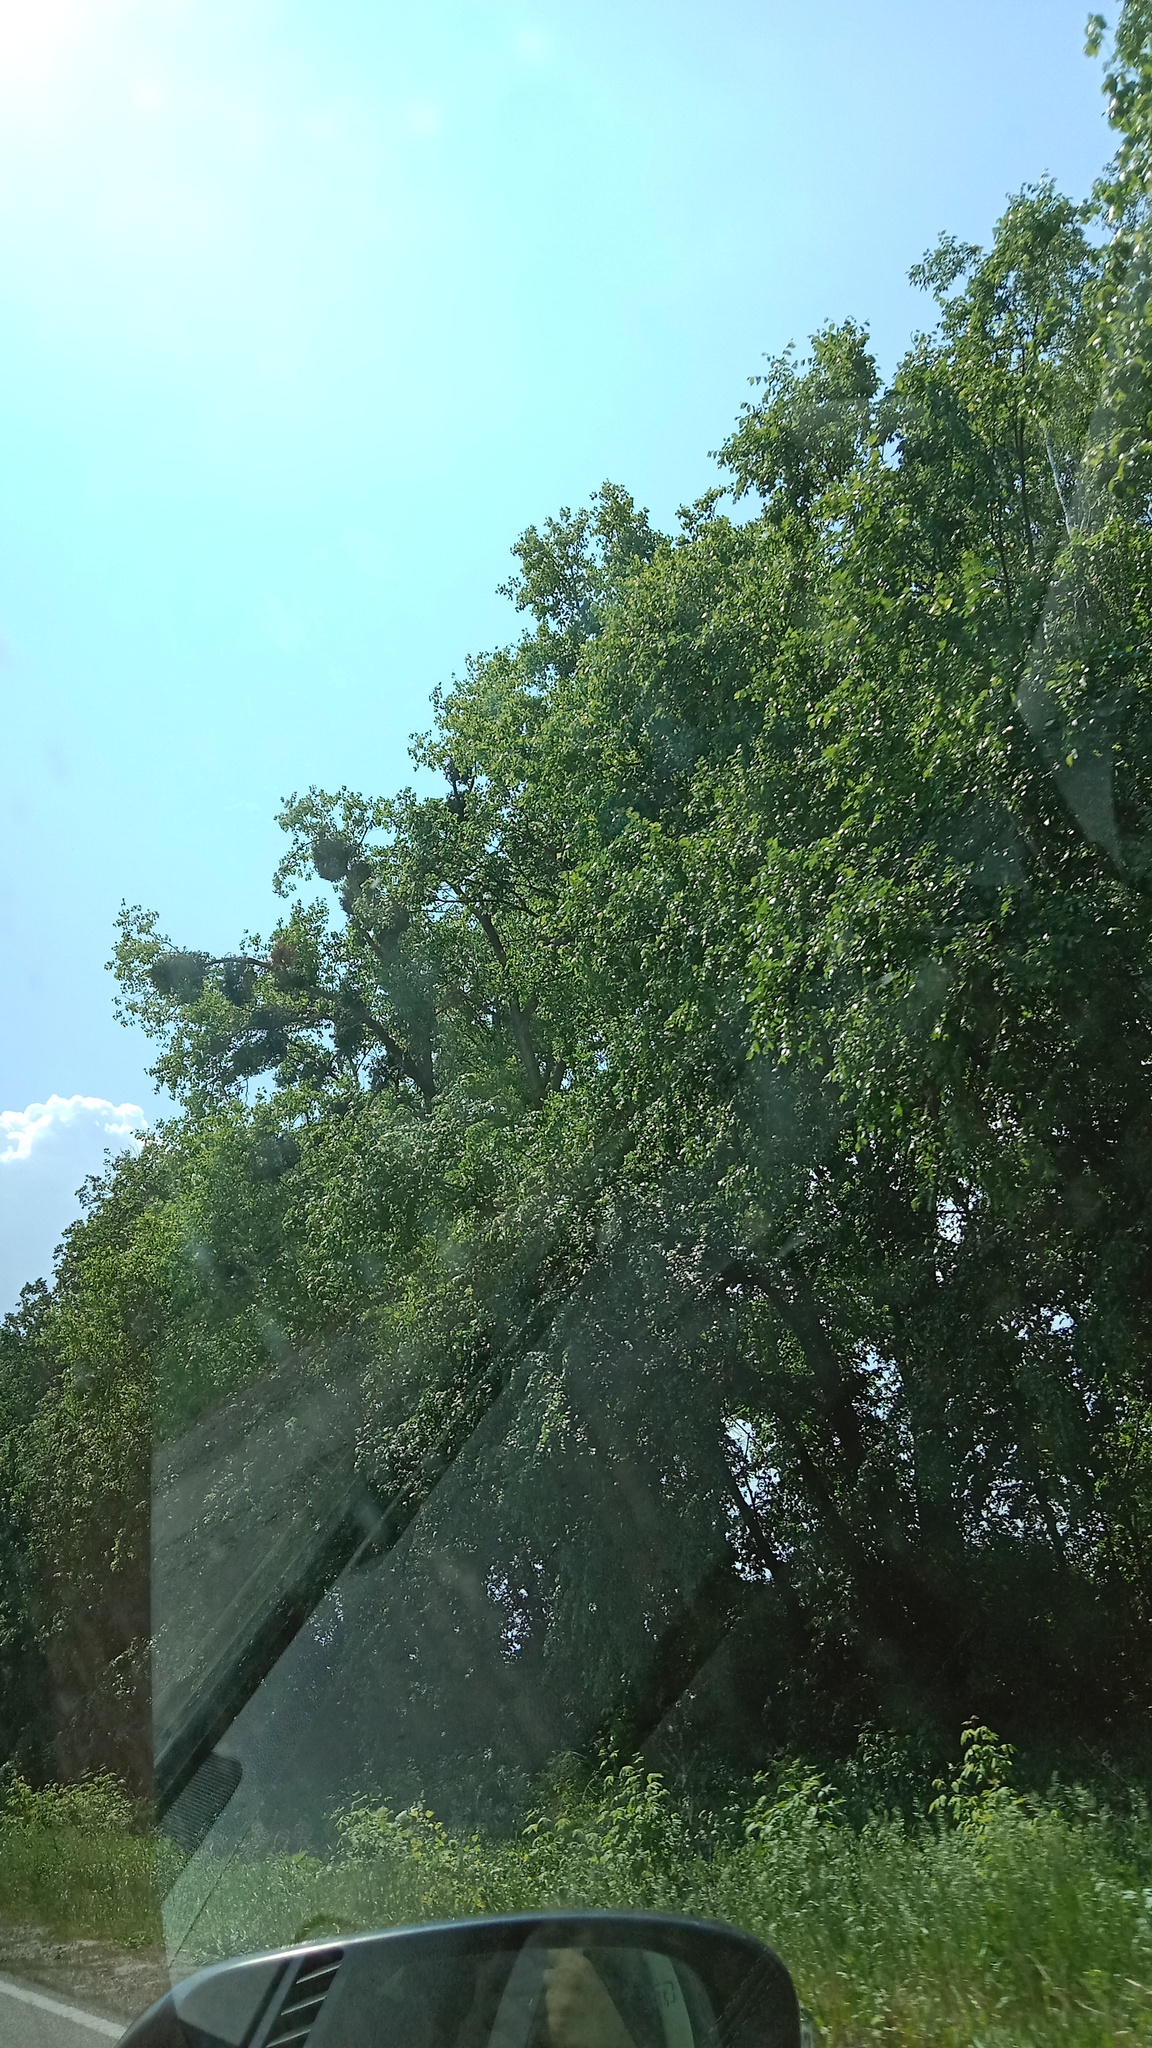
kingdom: Plantae
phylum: Tracheophyta
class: Magnoliopsida
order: Santalales
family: Viscaceae
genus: Viscum
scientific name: Viscum album
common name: Mistletoe
